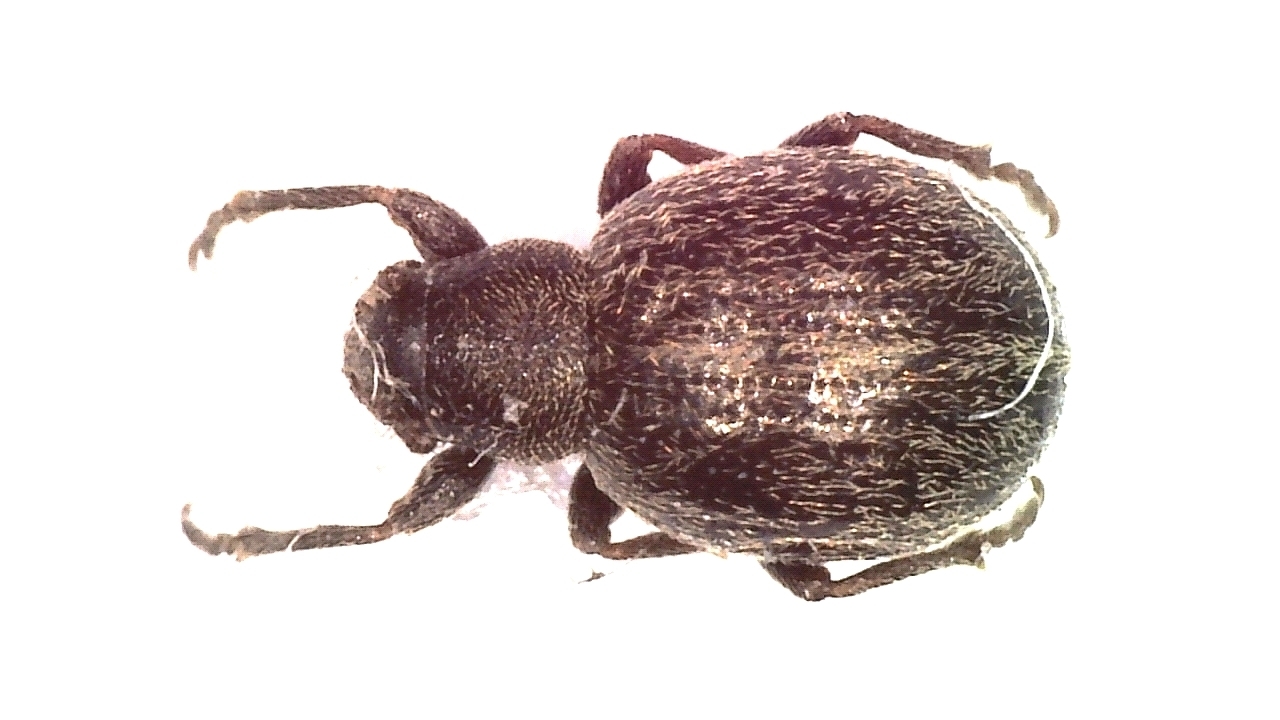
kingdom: Animalia
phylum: Arthropoda
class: Insecta
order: Coleoptera
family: Curculionidae
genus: Omias
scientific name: Omias puberulus
